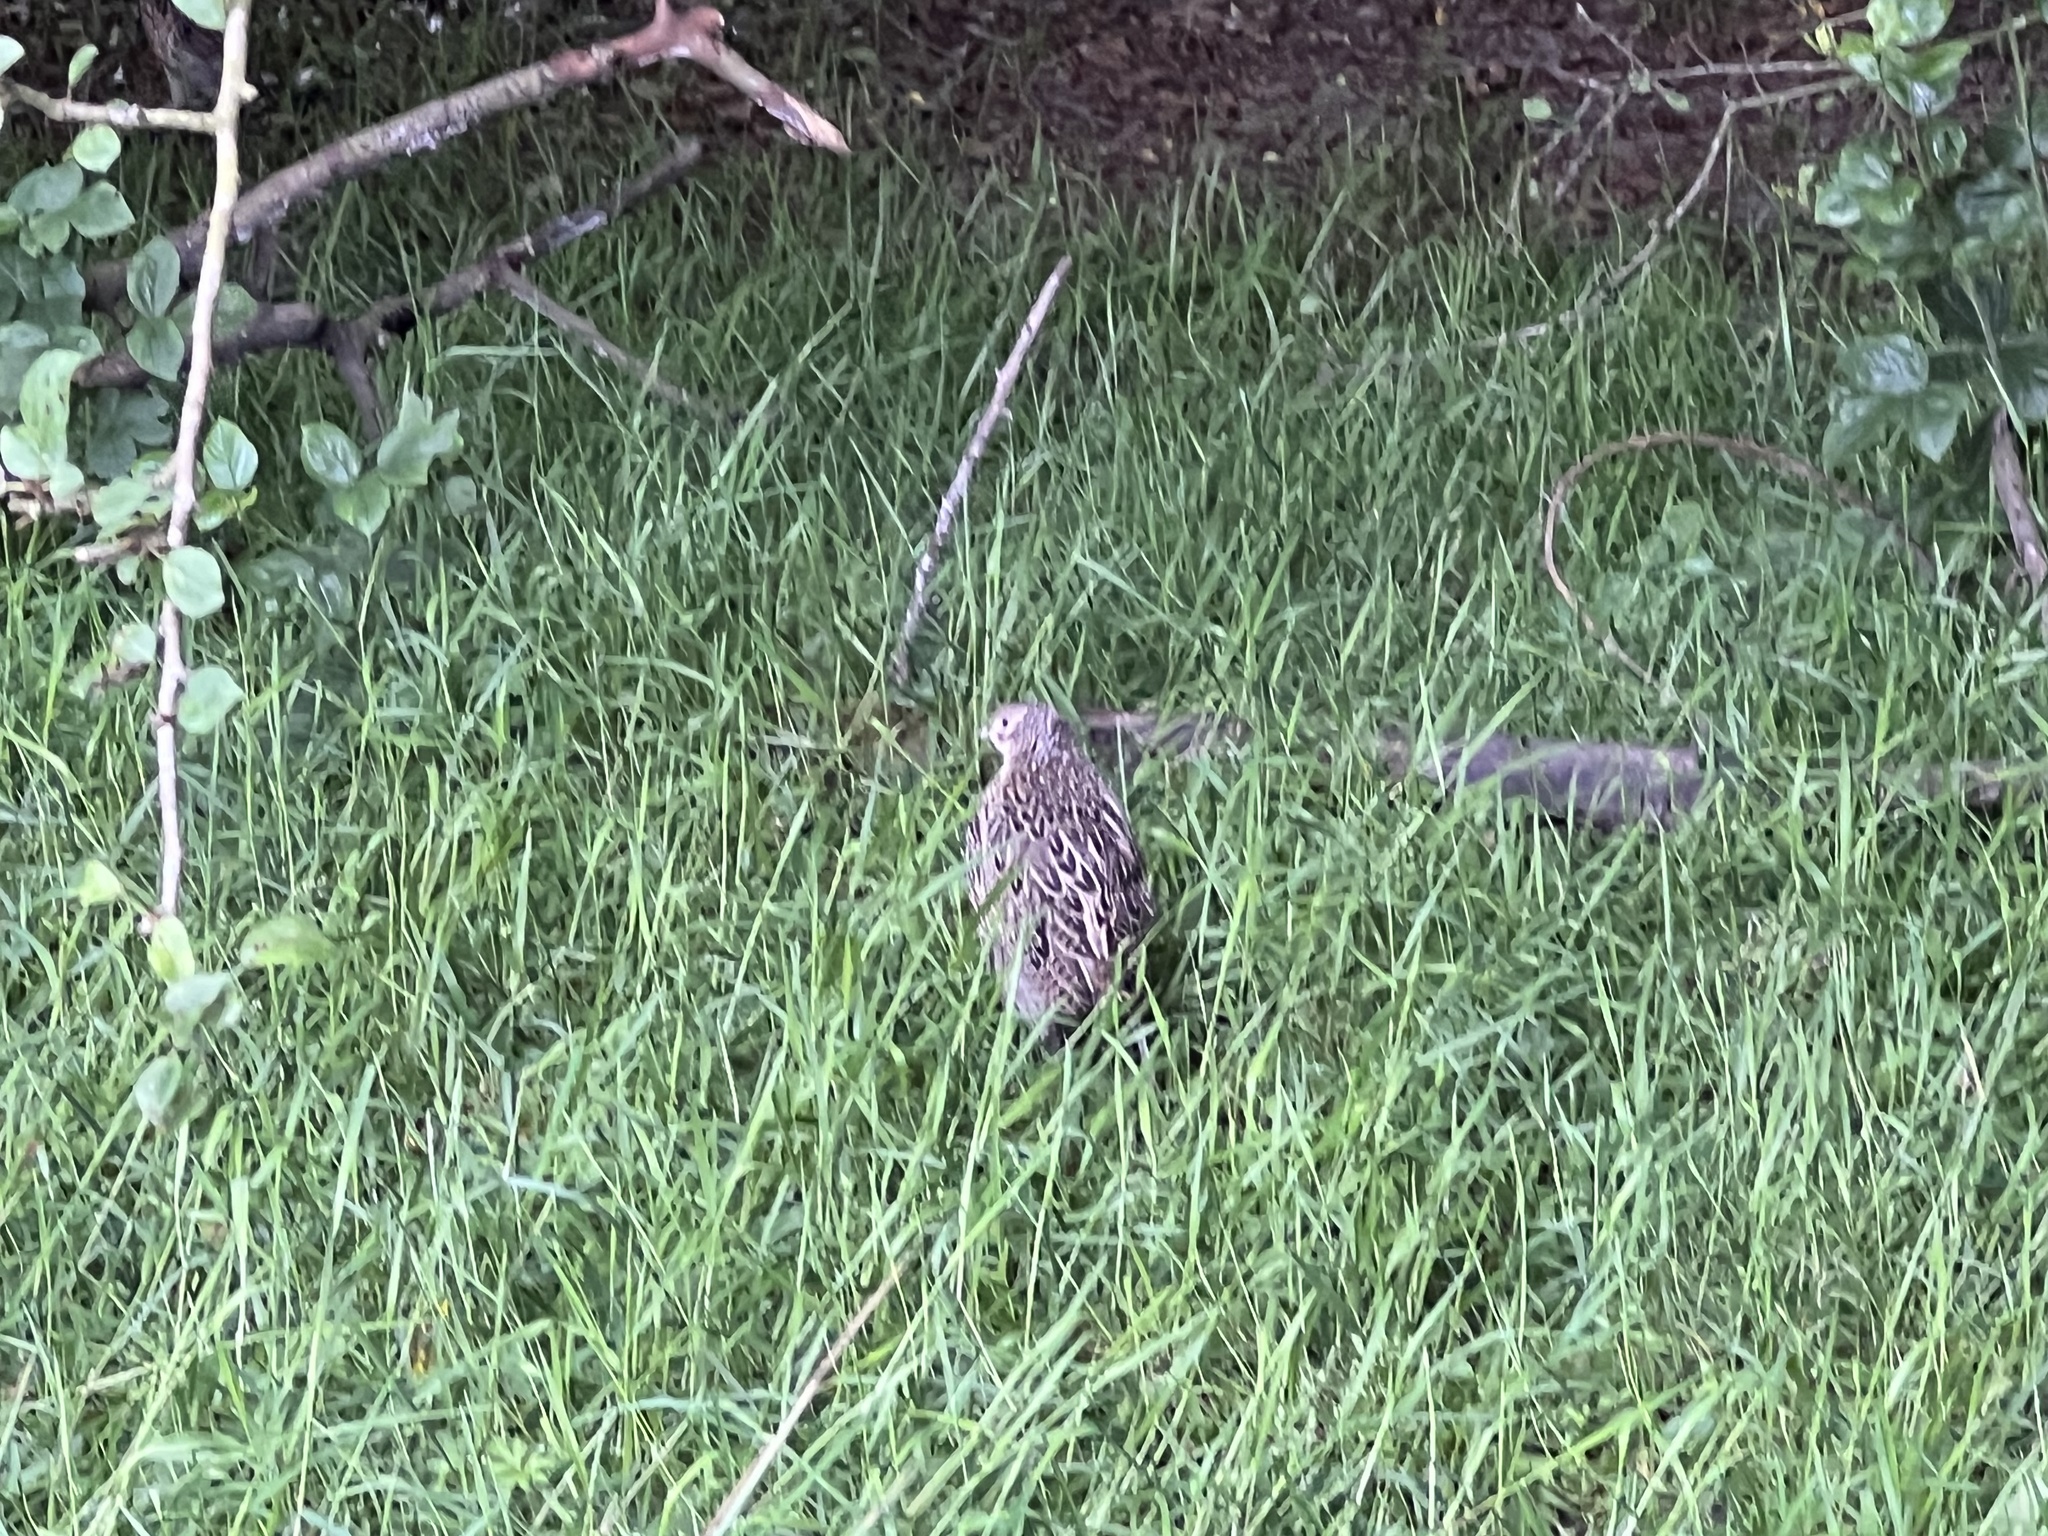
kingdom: Animalia
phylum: Chordata
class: Aves
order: Galliformes
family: Phasianidae
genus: Phasianus
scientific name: Phasianus colchicus
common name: Common pheasant
